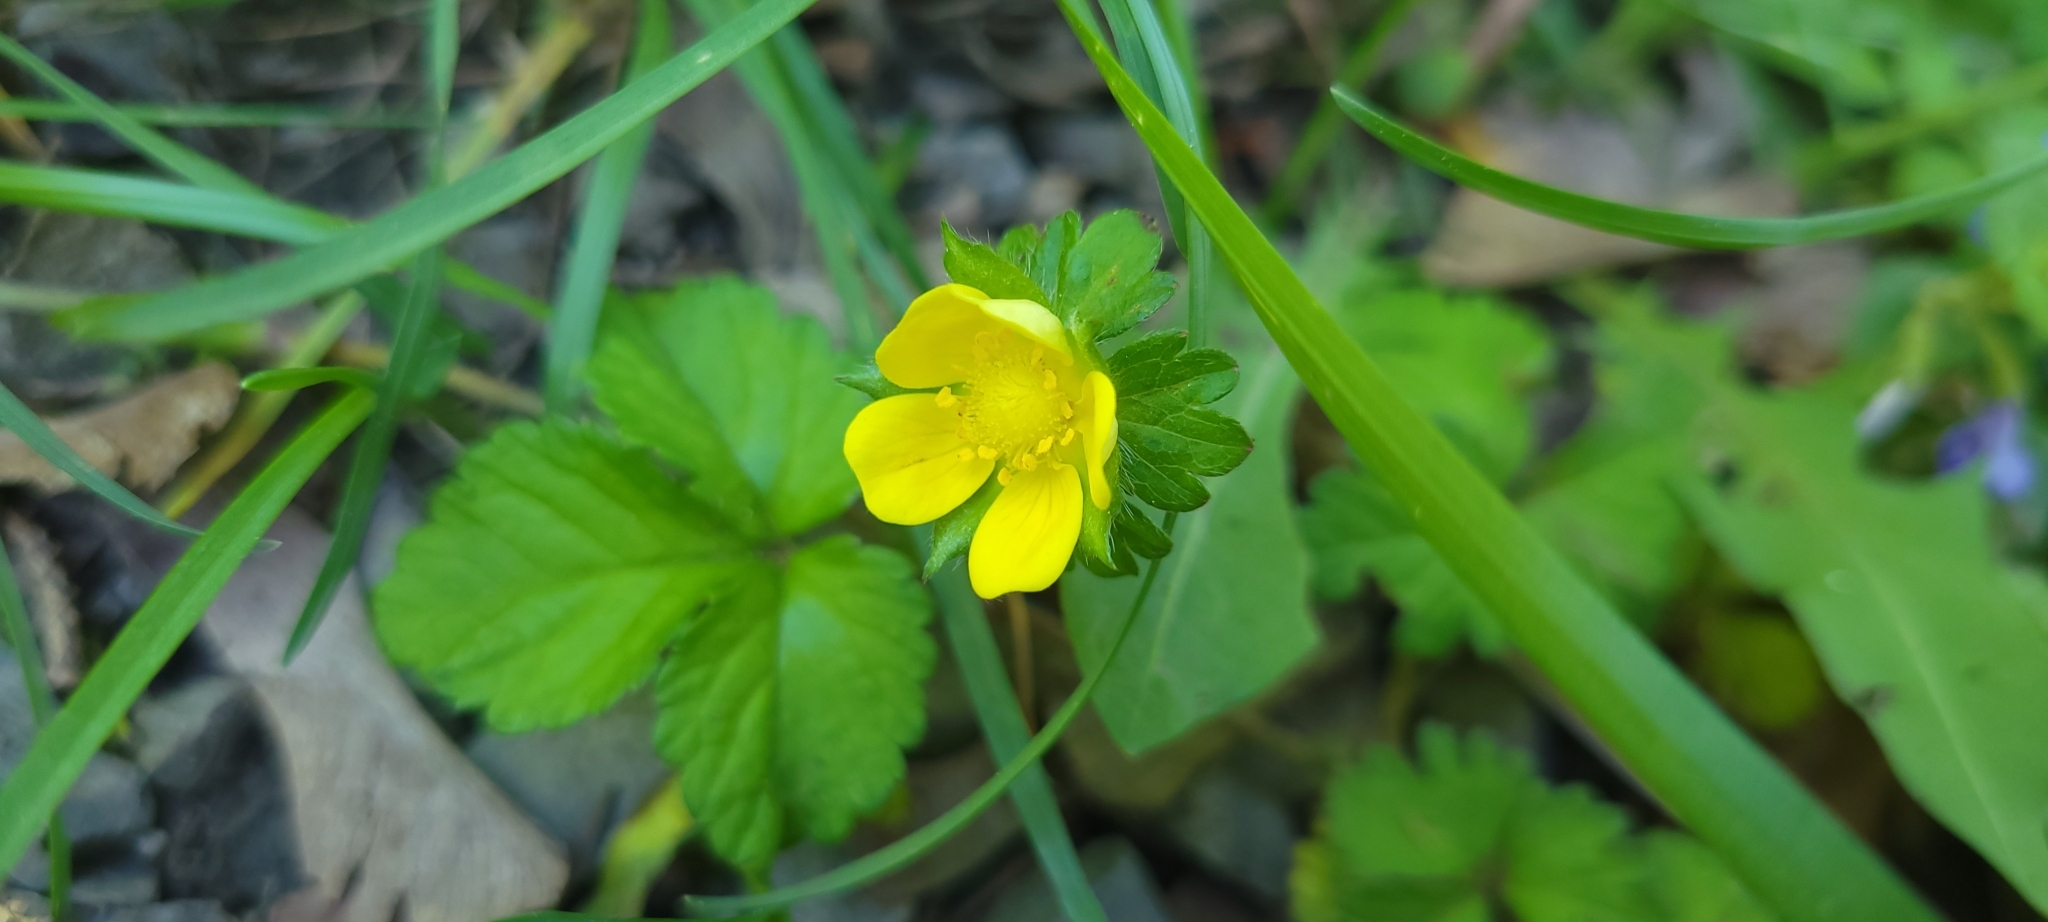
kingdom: Plantae
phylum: Tracheophyta
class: Magnoliopsida
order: Rosales
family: Rosaceae
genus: Potentilla
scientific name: Potentilla indica
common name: Yellow-flowered strawberry
